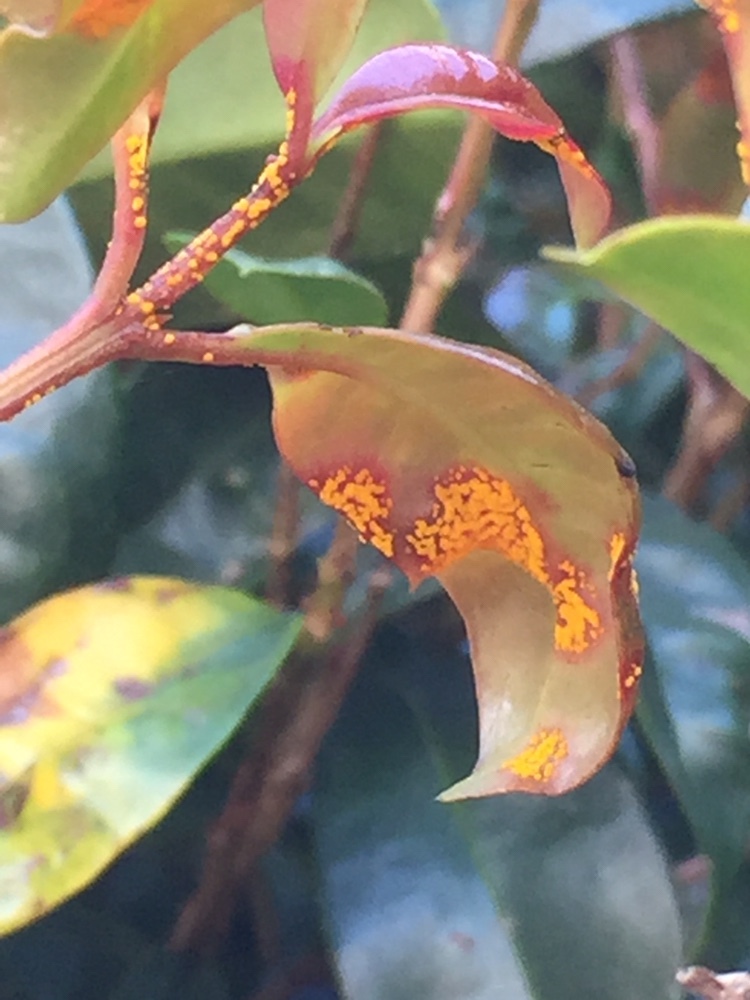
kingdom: Fungi
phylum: Basidiomycota
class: Pucciniomycetes
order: Pucciniales
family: Sphaerophragmiaceae
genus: Austropuccinia
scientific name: Austropuccinia psidii
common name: Myrtle rust
